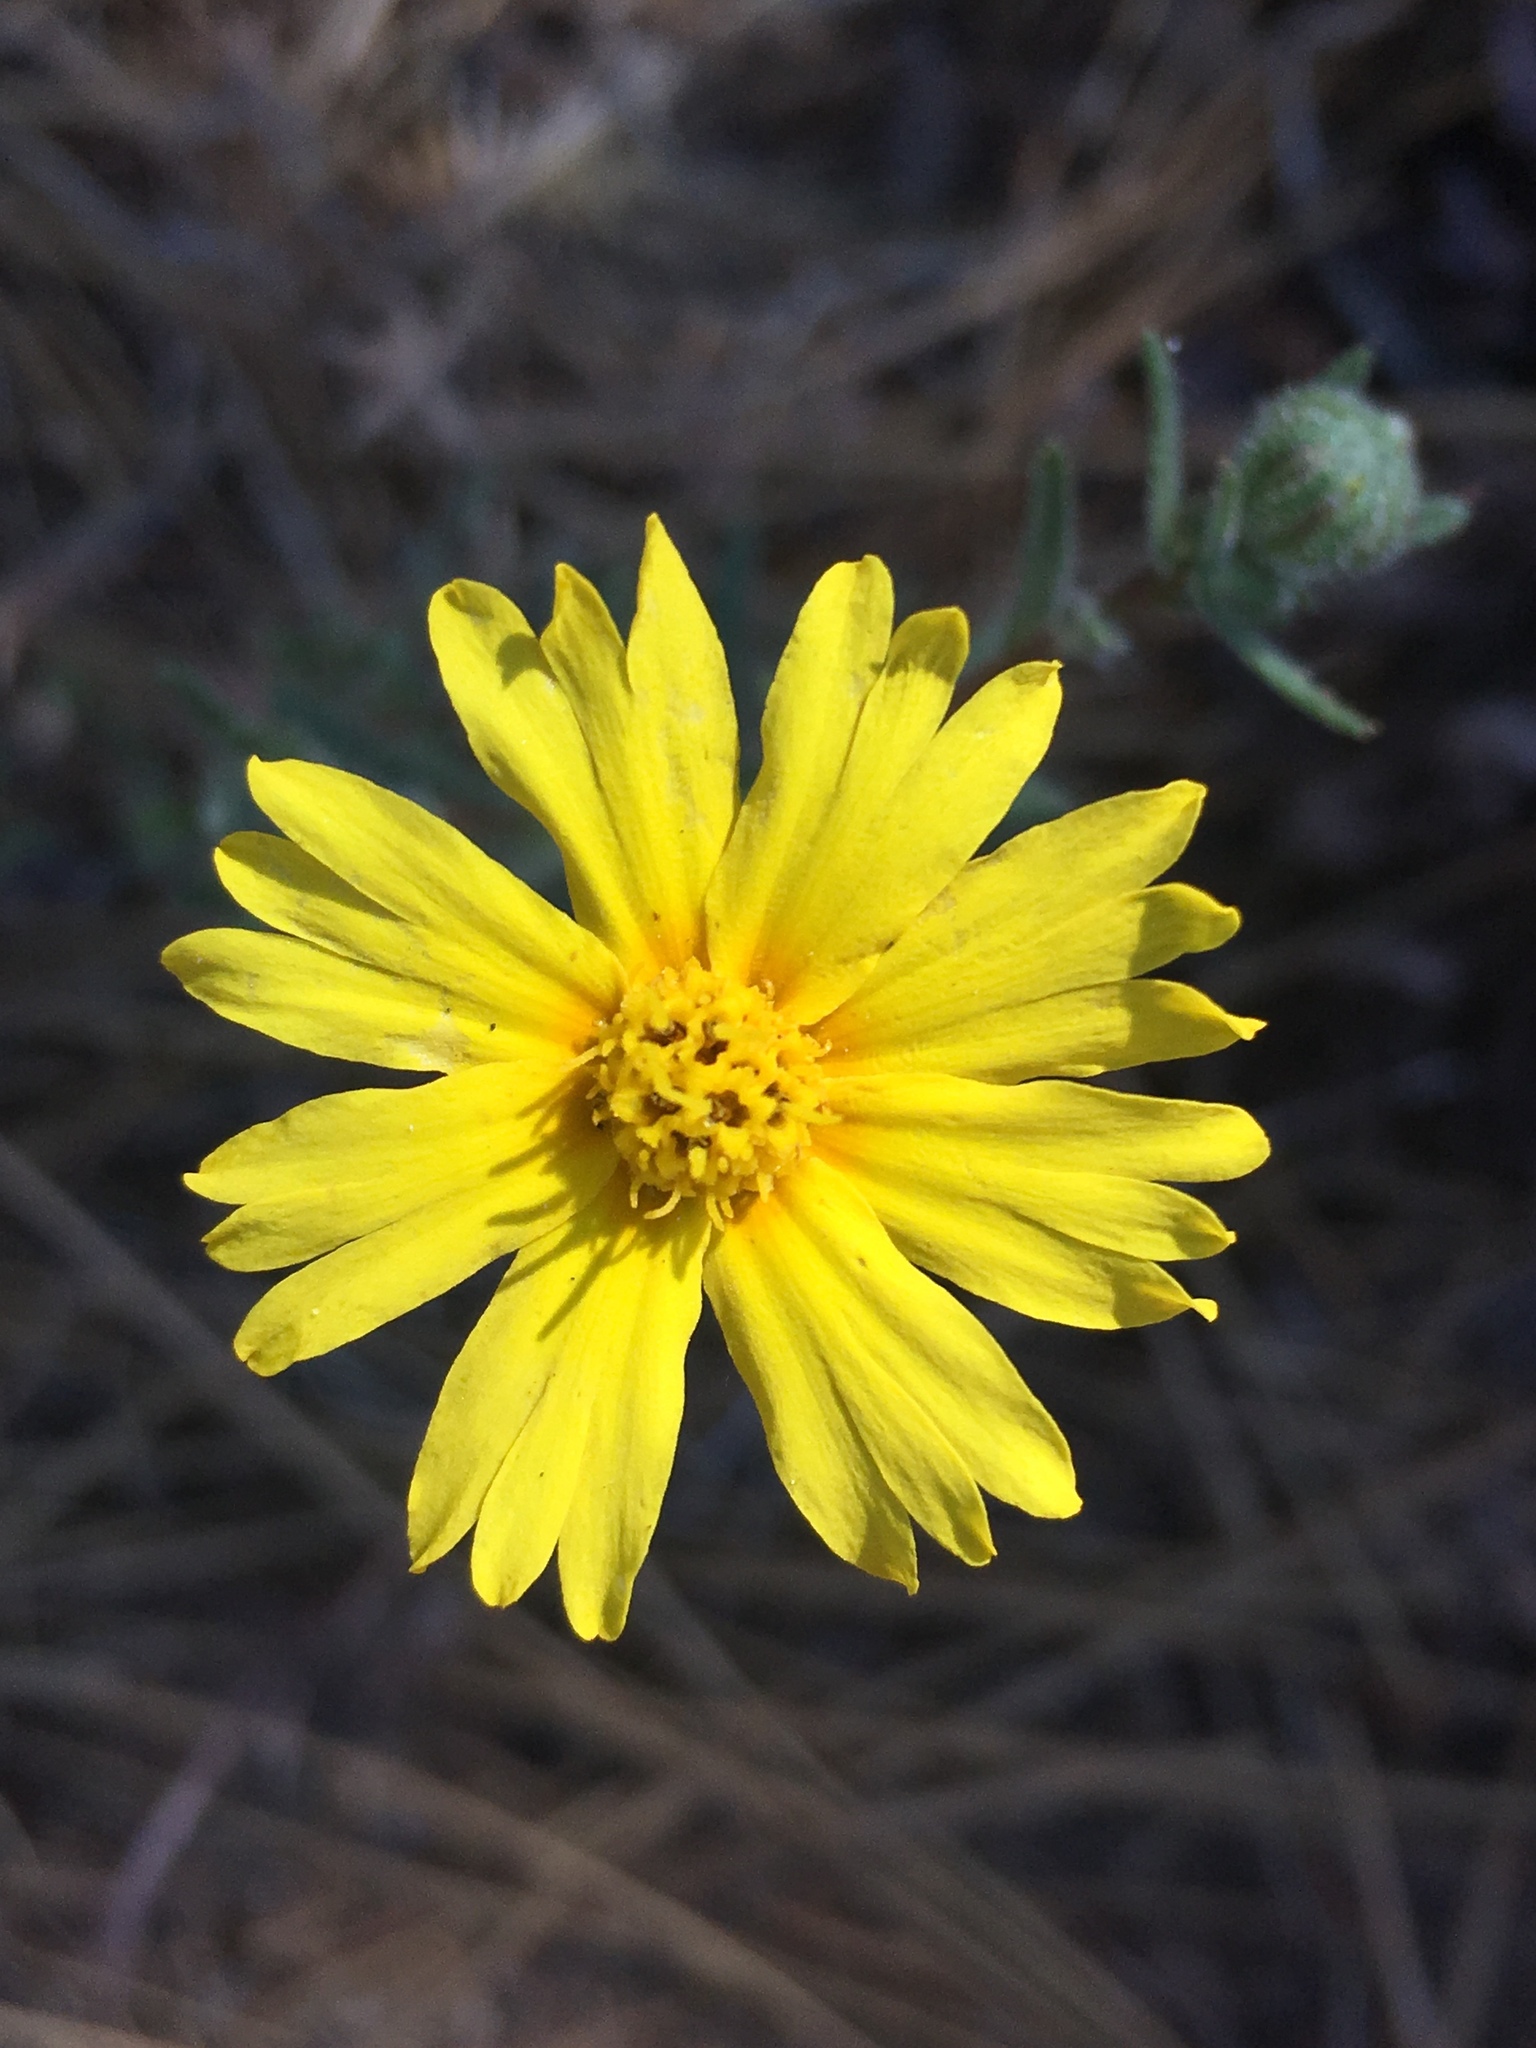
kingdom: Plantae
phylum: Tracheophyta
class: Magnoliopsida
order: Asterales
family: Asteraceae
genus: Madia
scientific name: Madia elegans
